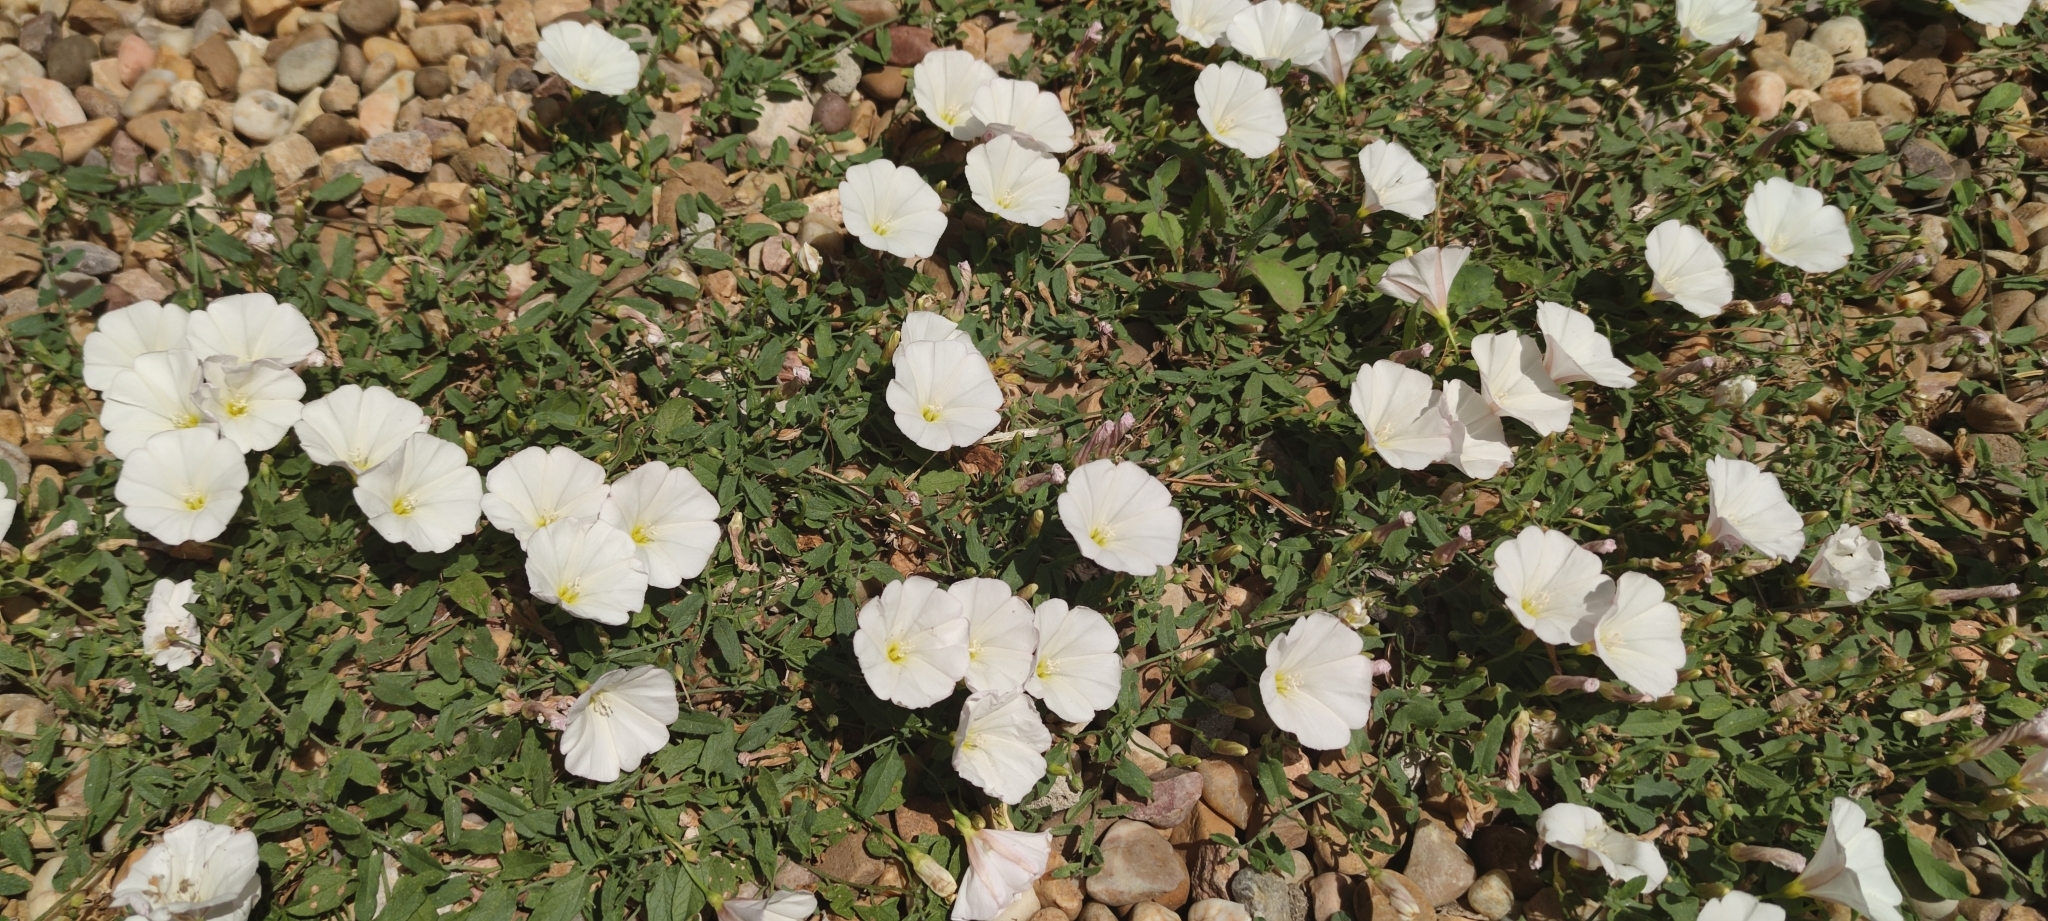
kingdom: Plantae
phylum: Tracheophyta
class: Magnoliopsida
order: Solanales
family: Convolvulaceae
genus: Convolvulus
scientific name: Convolvulus arvensis
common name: Field bindweed
